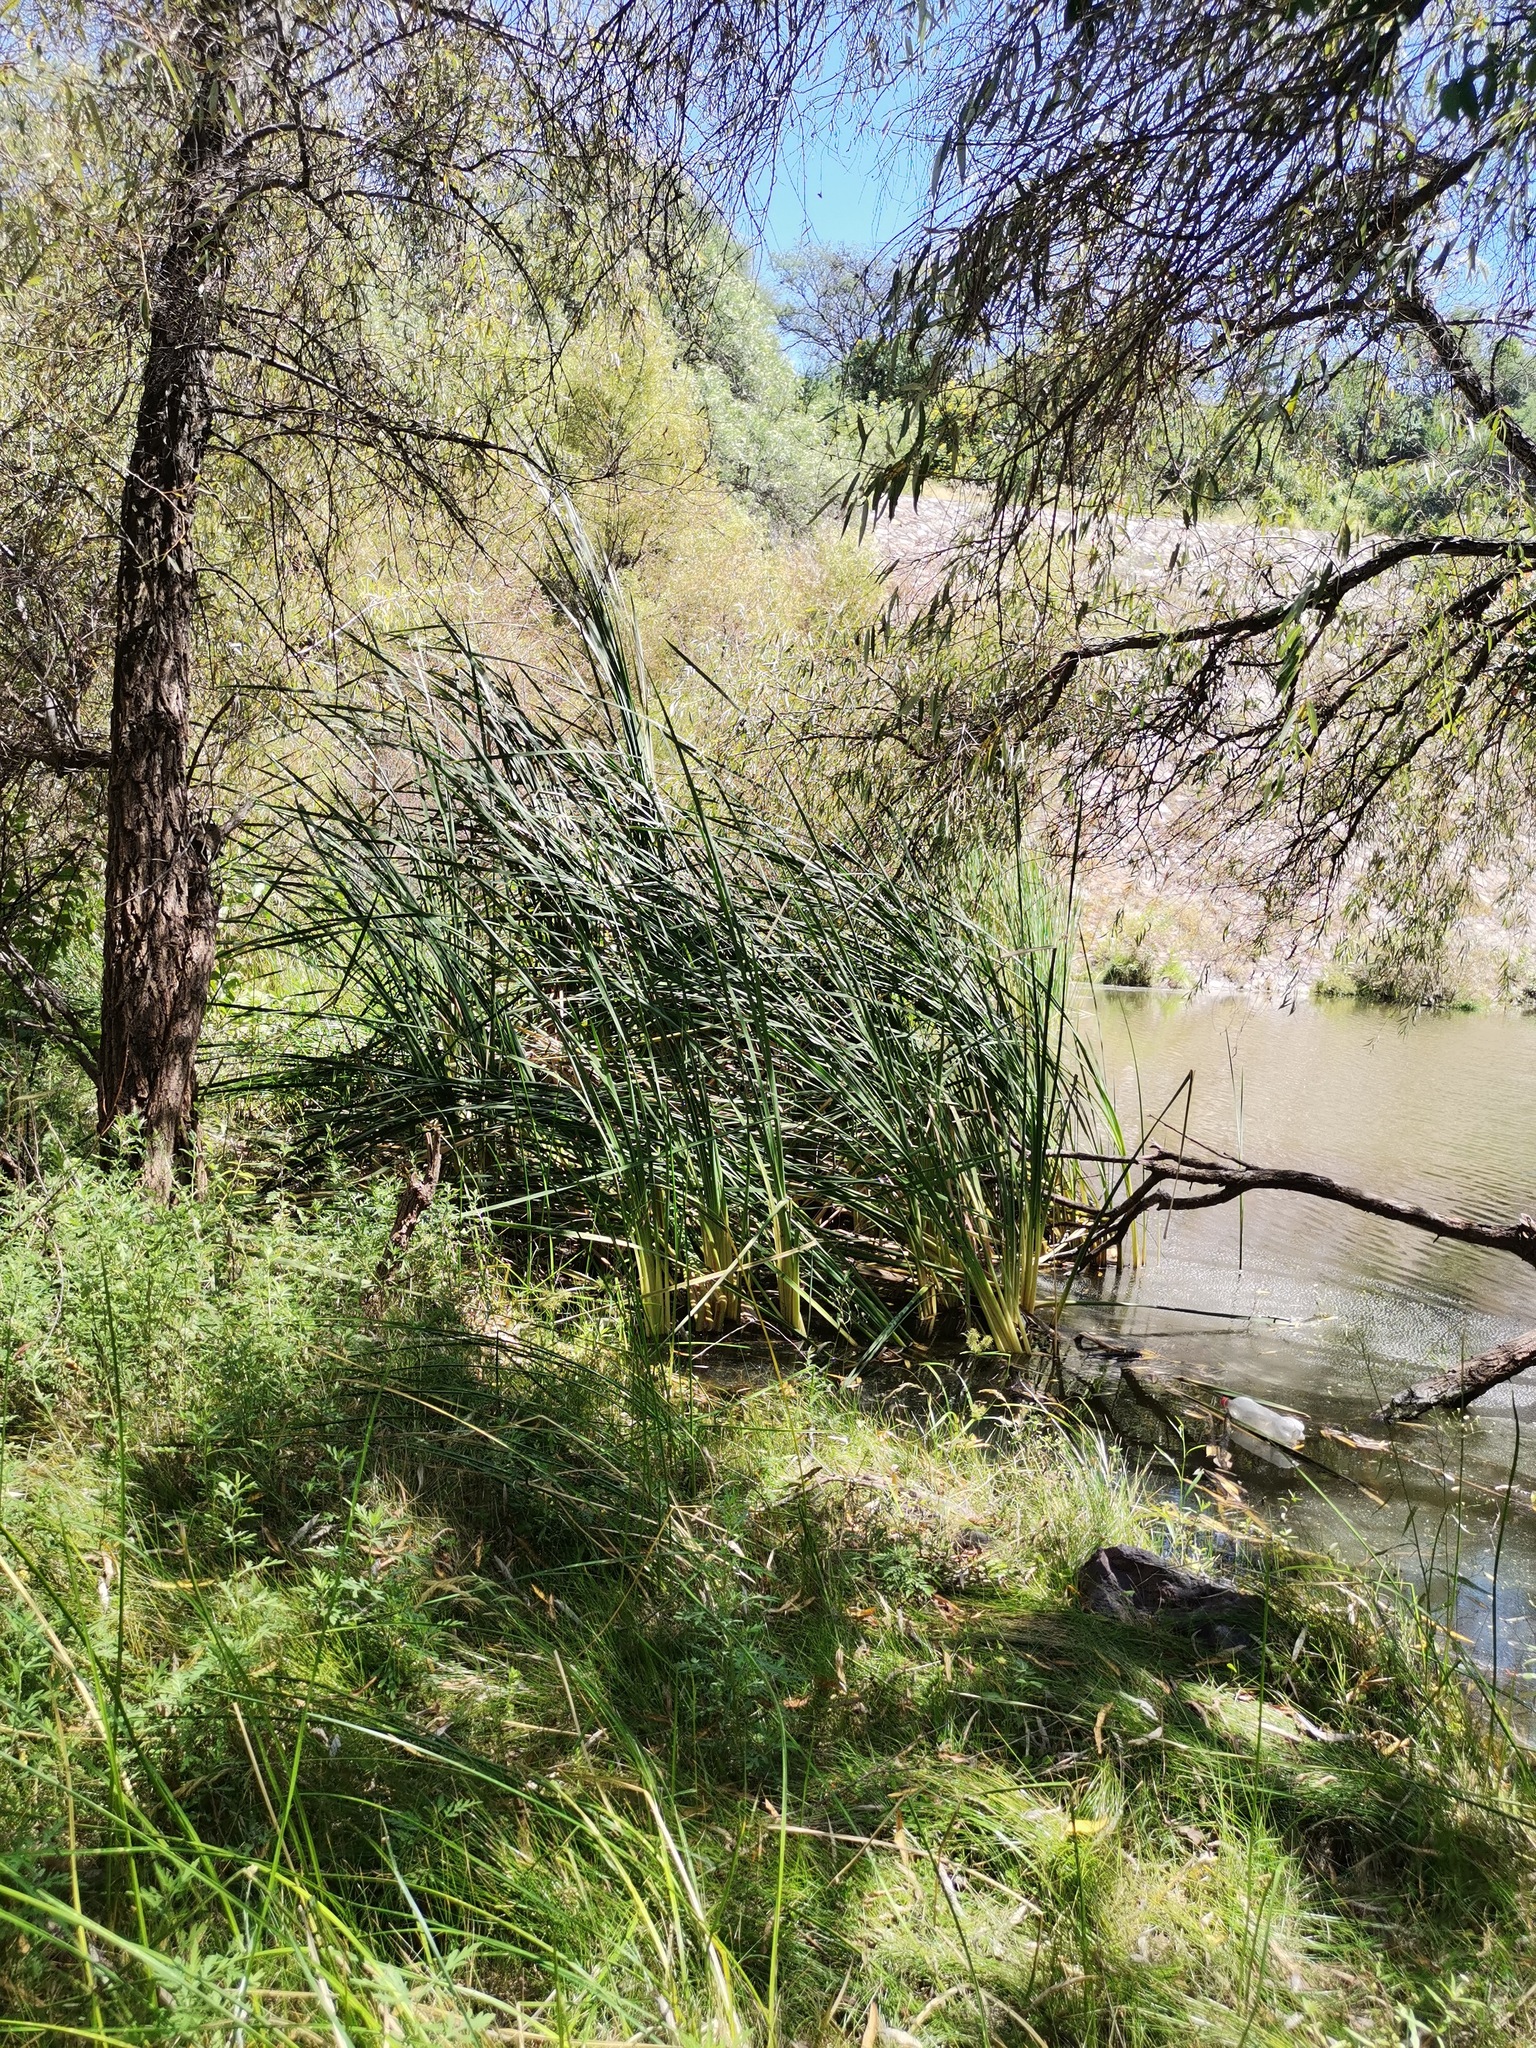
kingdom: Plantae
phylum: Tracheophyta
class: Liliopsida
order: Poales
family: Typhaceae
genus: Typha
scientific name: Typha domingensis
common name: Southern cattail
